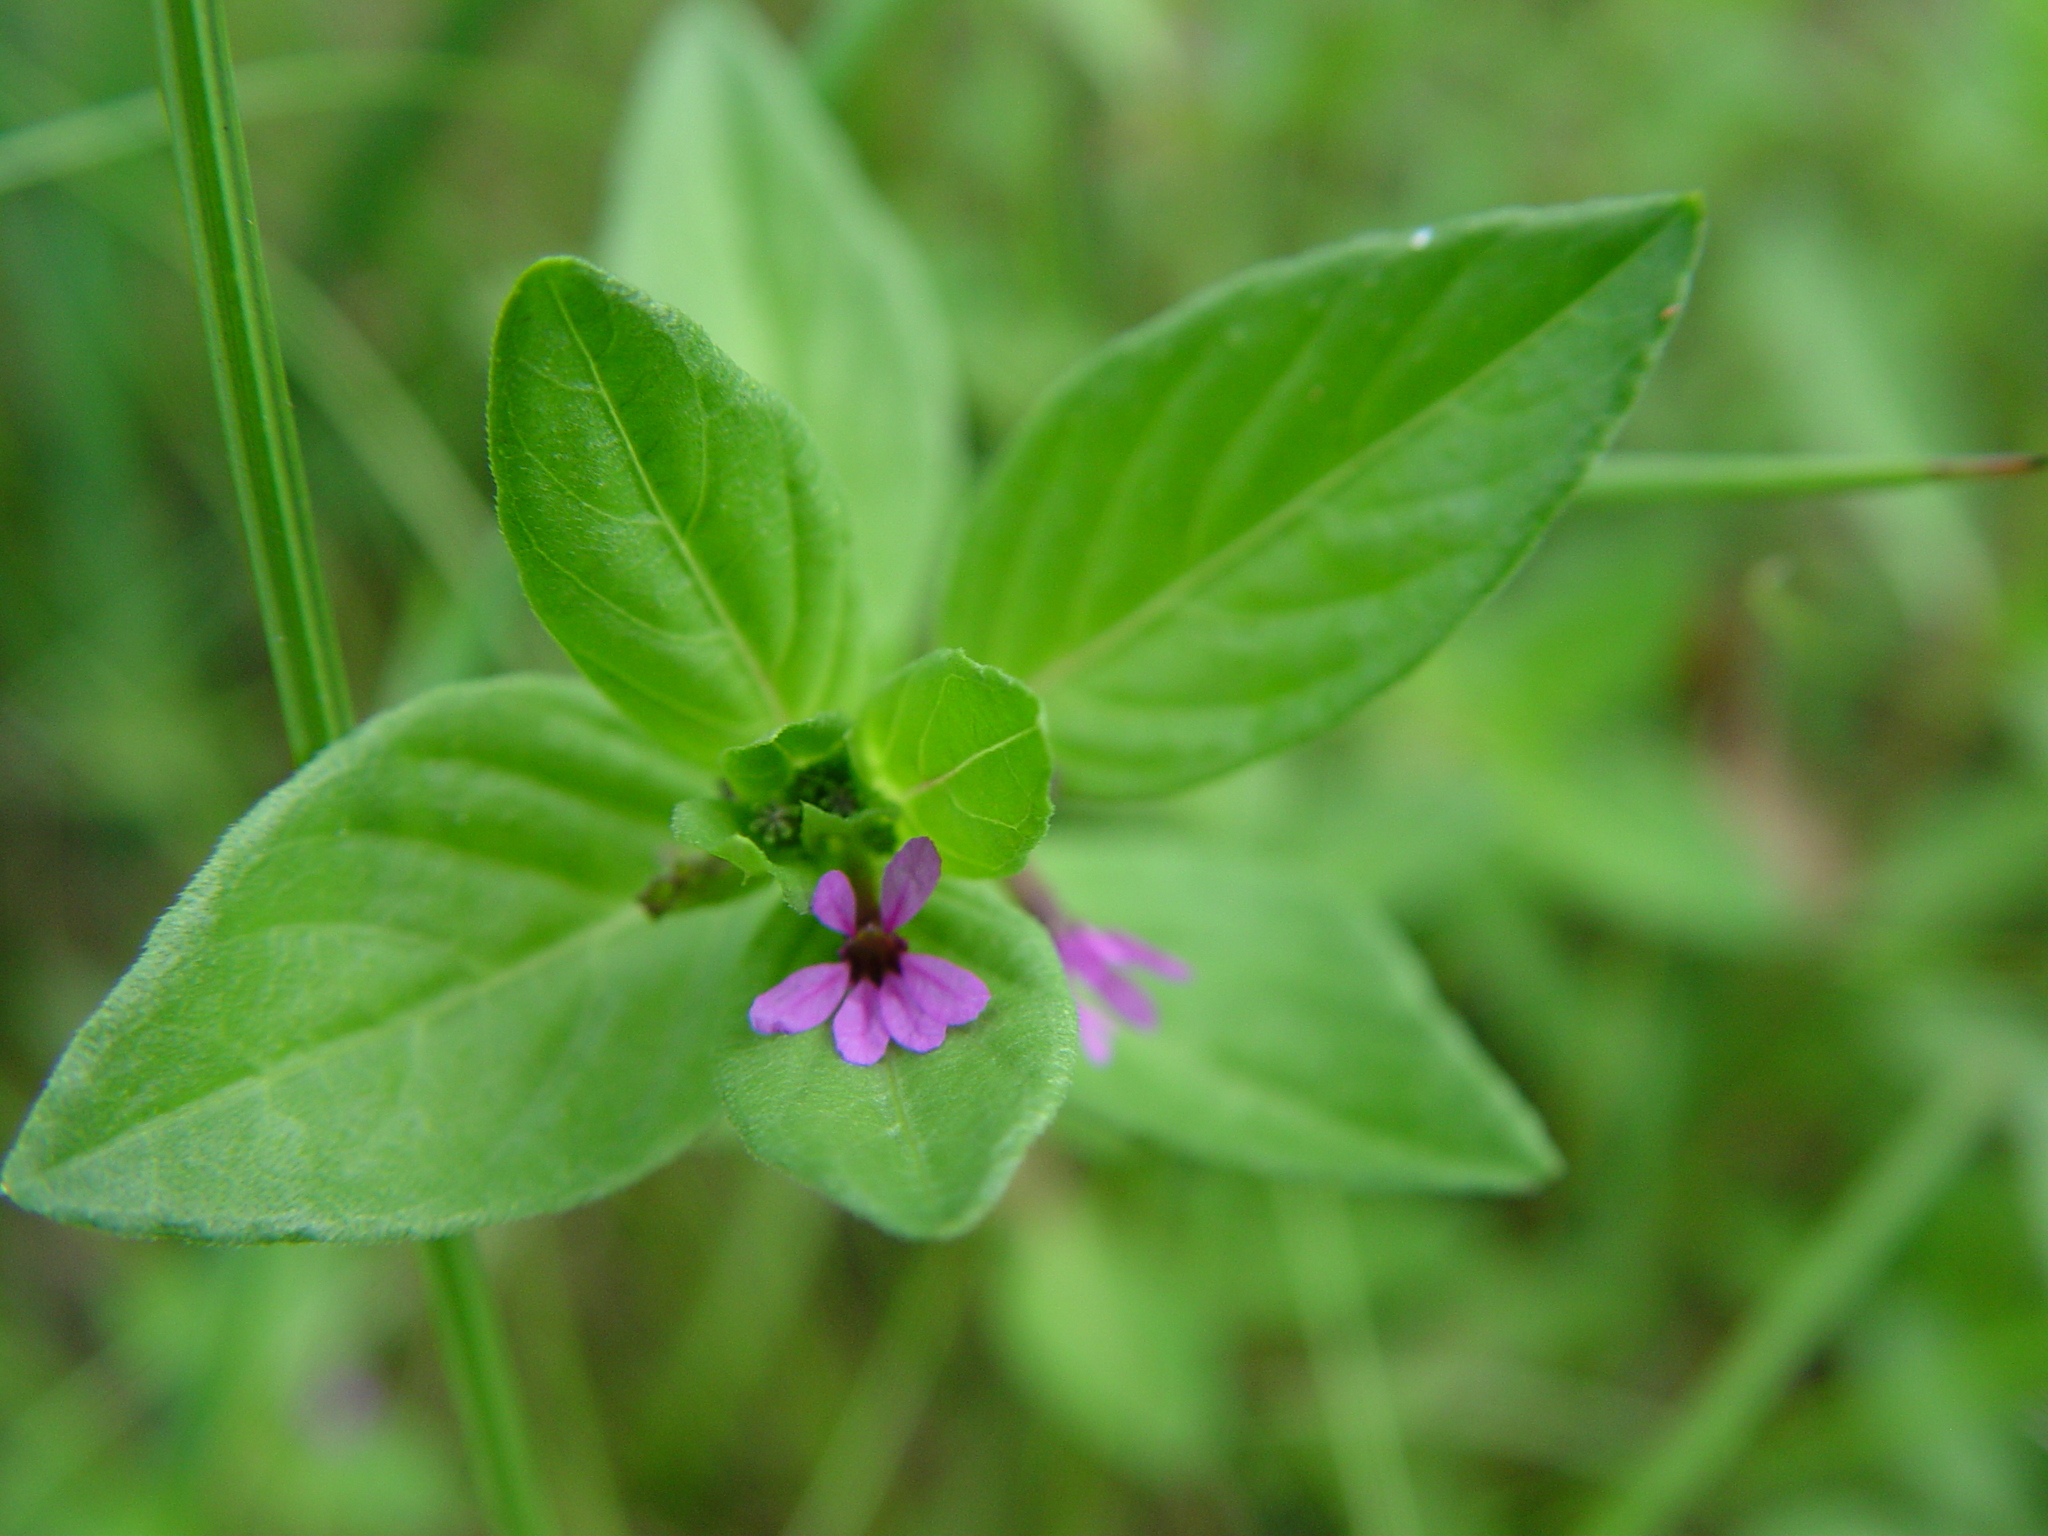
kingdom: Plantae
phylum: Tracheophyta
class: Magnoliopsida
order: Myrtales
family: Lythraceae
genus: Cuphea
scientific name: Cuphea carthagenensis
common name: Colombian waxweed
